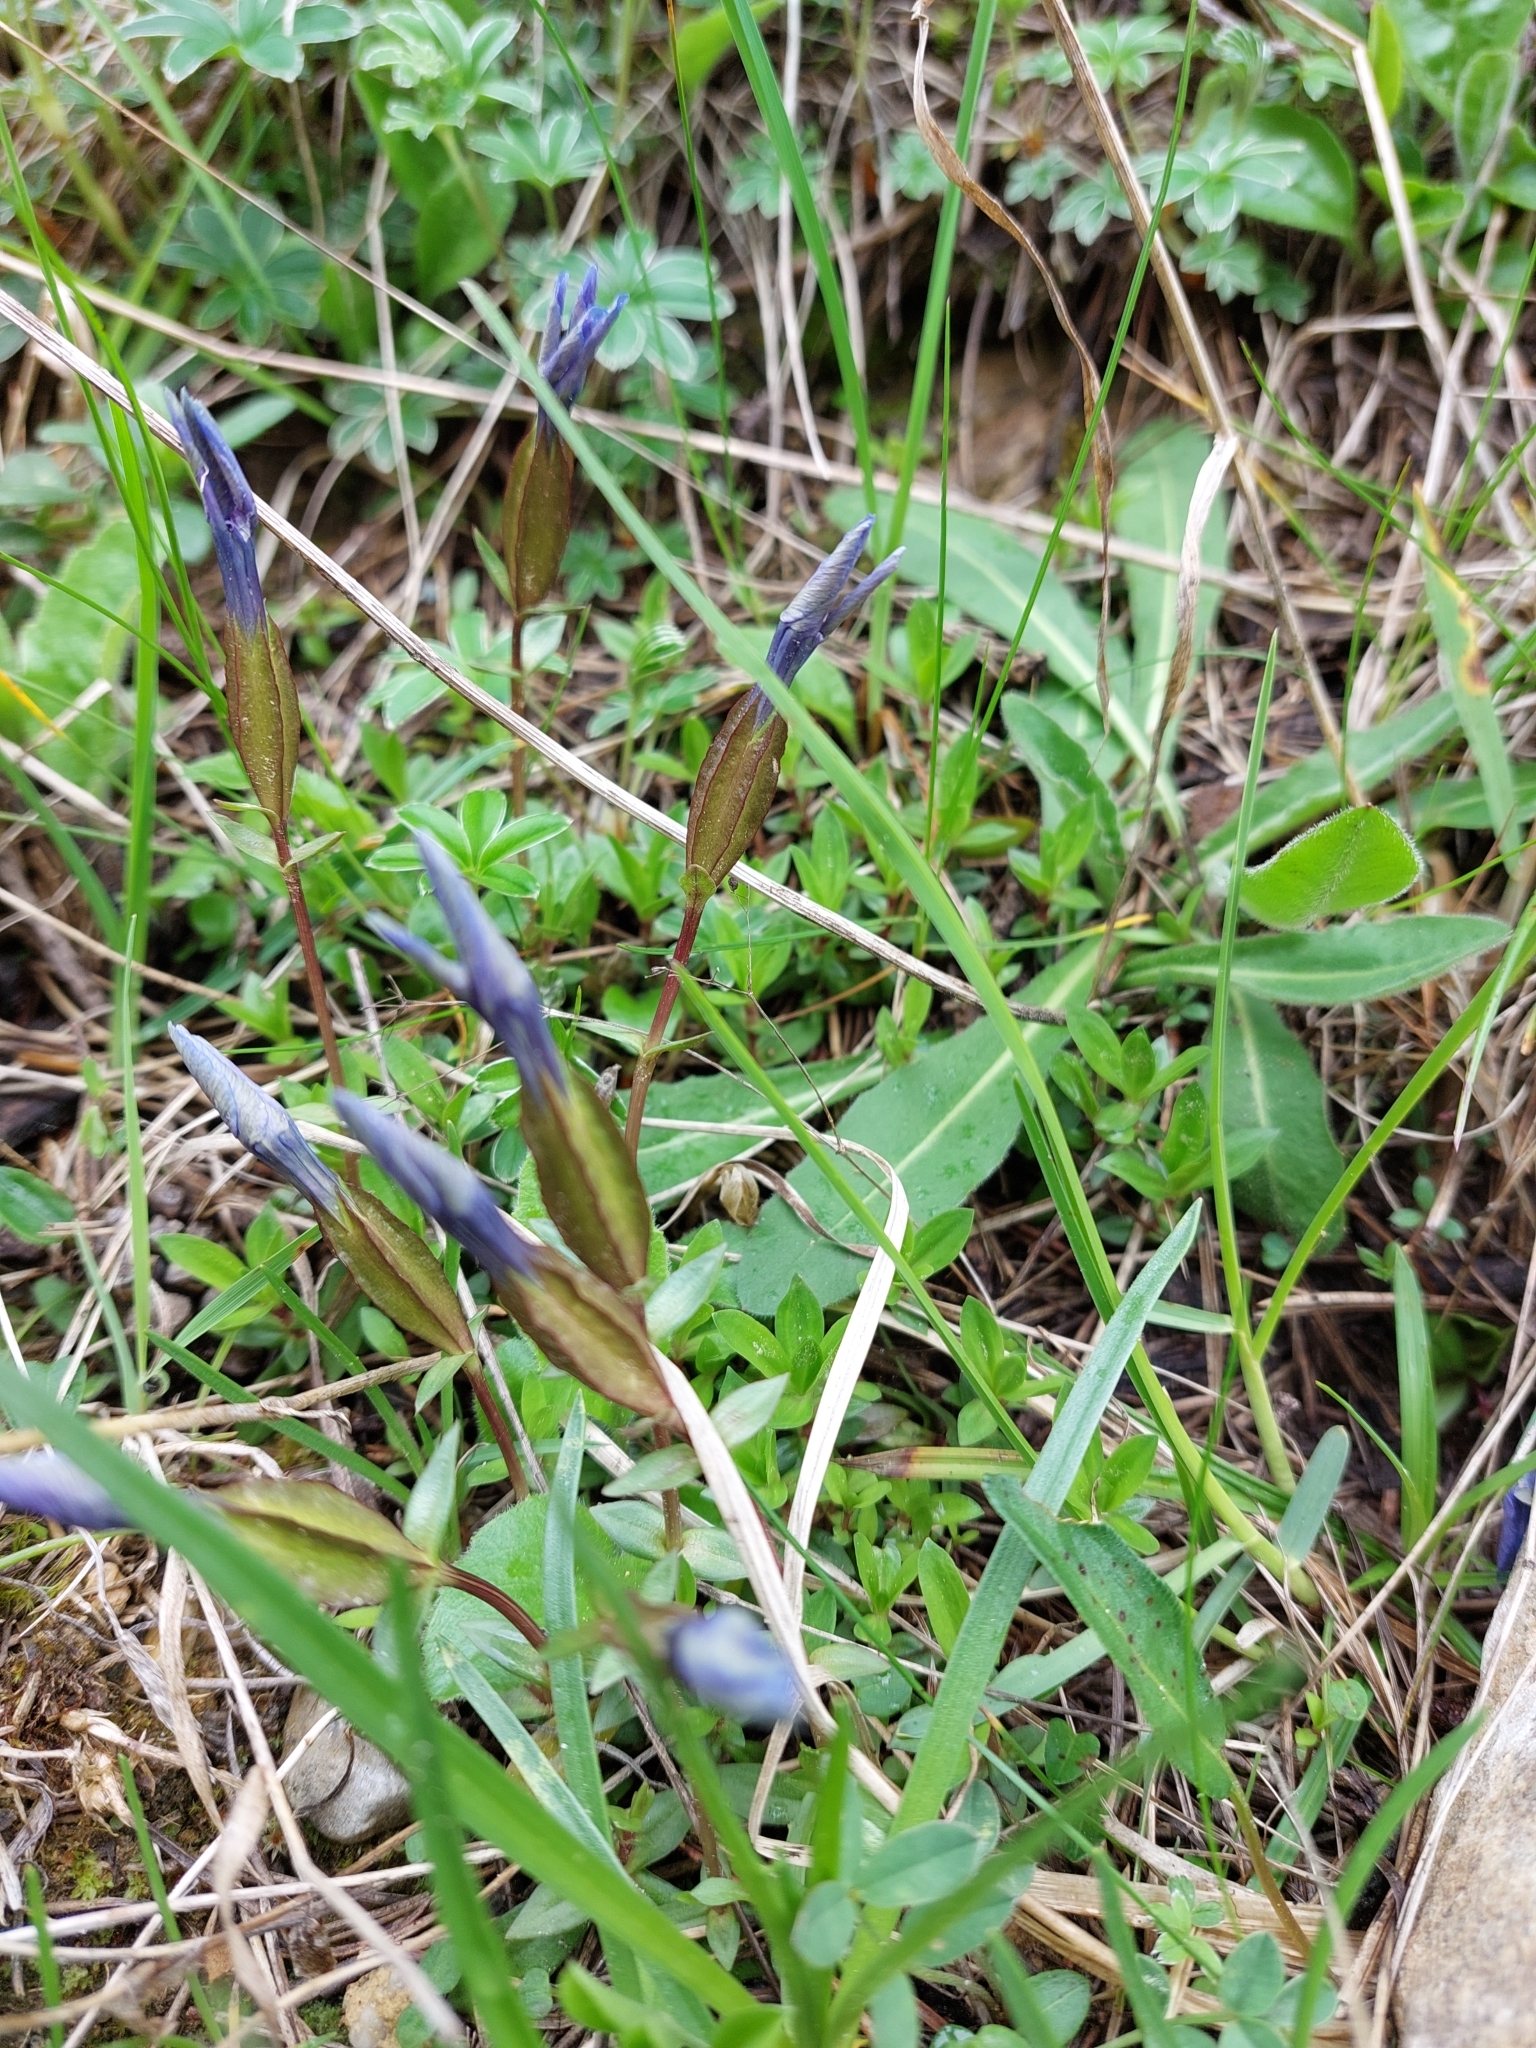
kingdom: Plantae
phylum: Tracheophyta
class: Magnoliopsida
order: Gentianales
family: Gentianaceae
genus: Gentiana
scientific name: Gentiana verna
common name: Spring gentian
